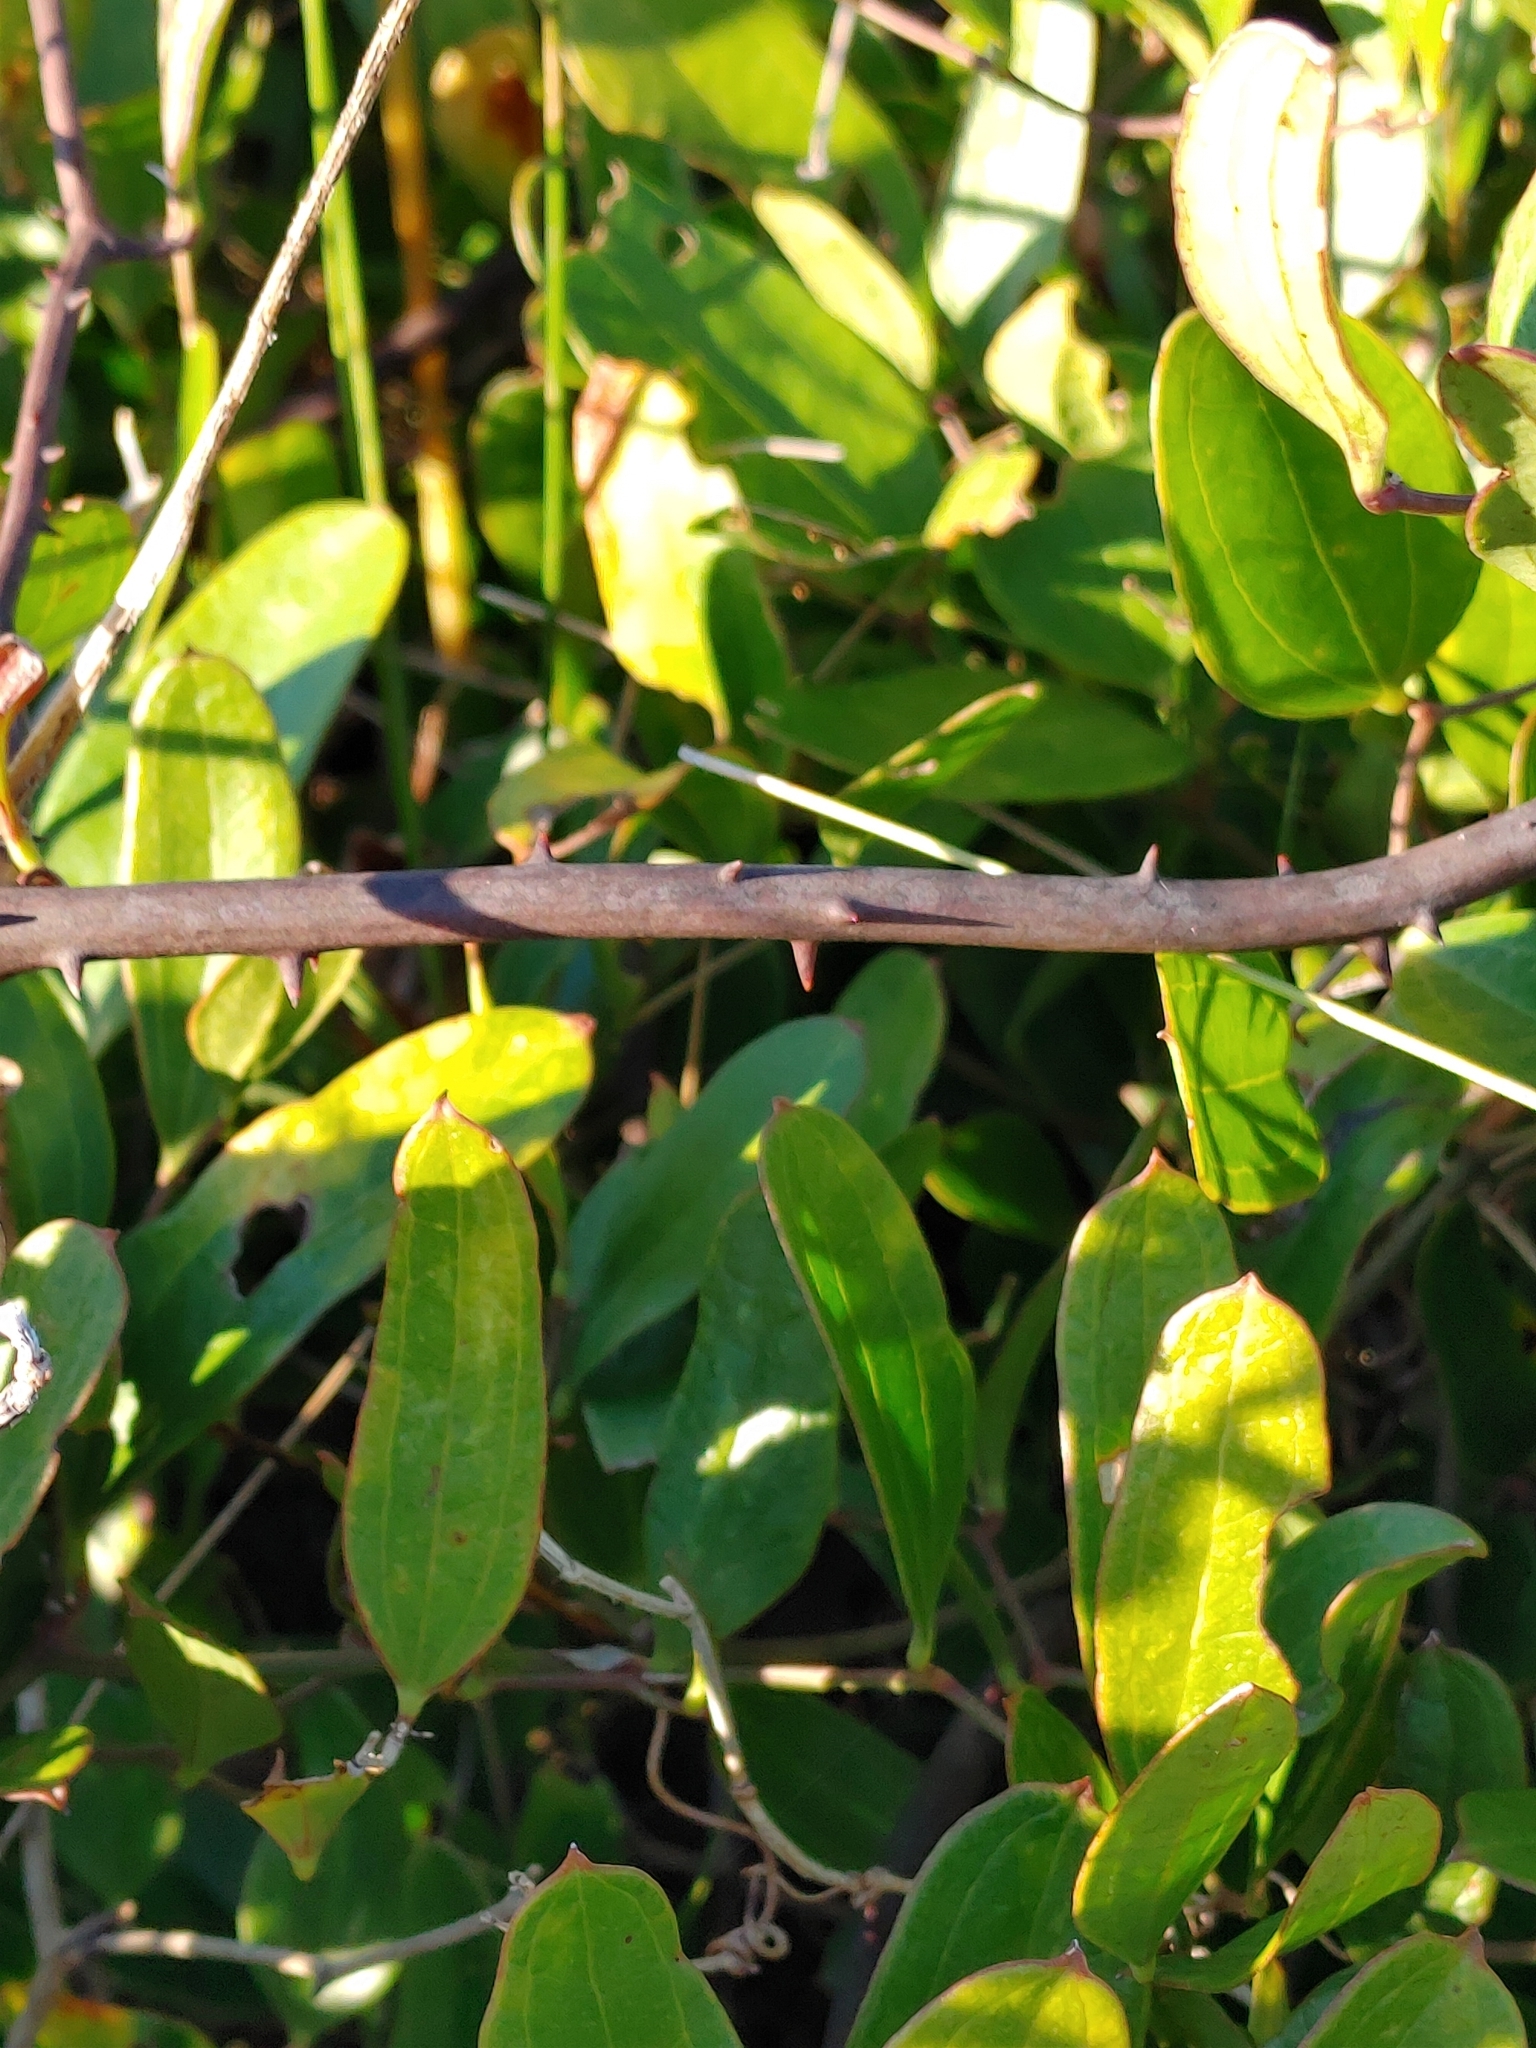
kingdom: Plantae
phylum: Tracheophyta
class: Liliopsida
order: Liliales
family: Smilacaceae
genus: Smilax
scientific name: Smilax auriculata
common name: Wild bamboo
